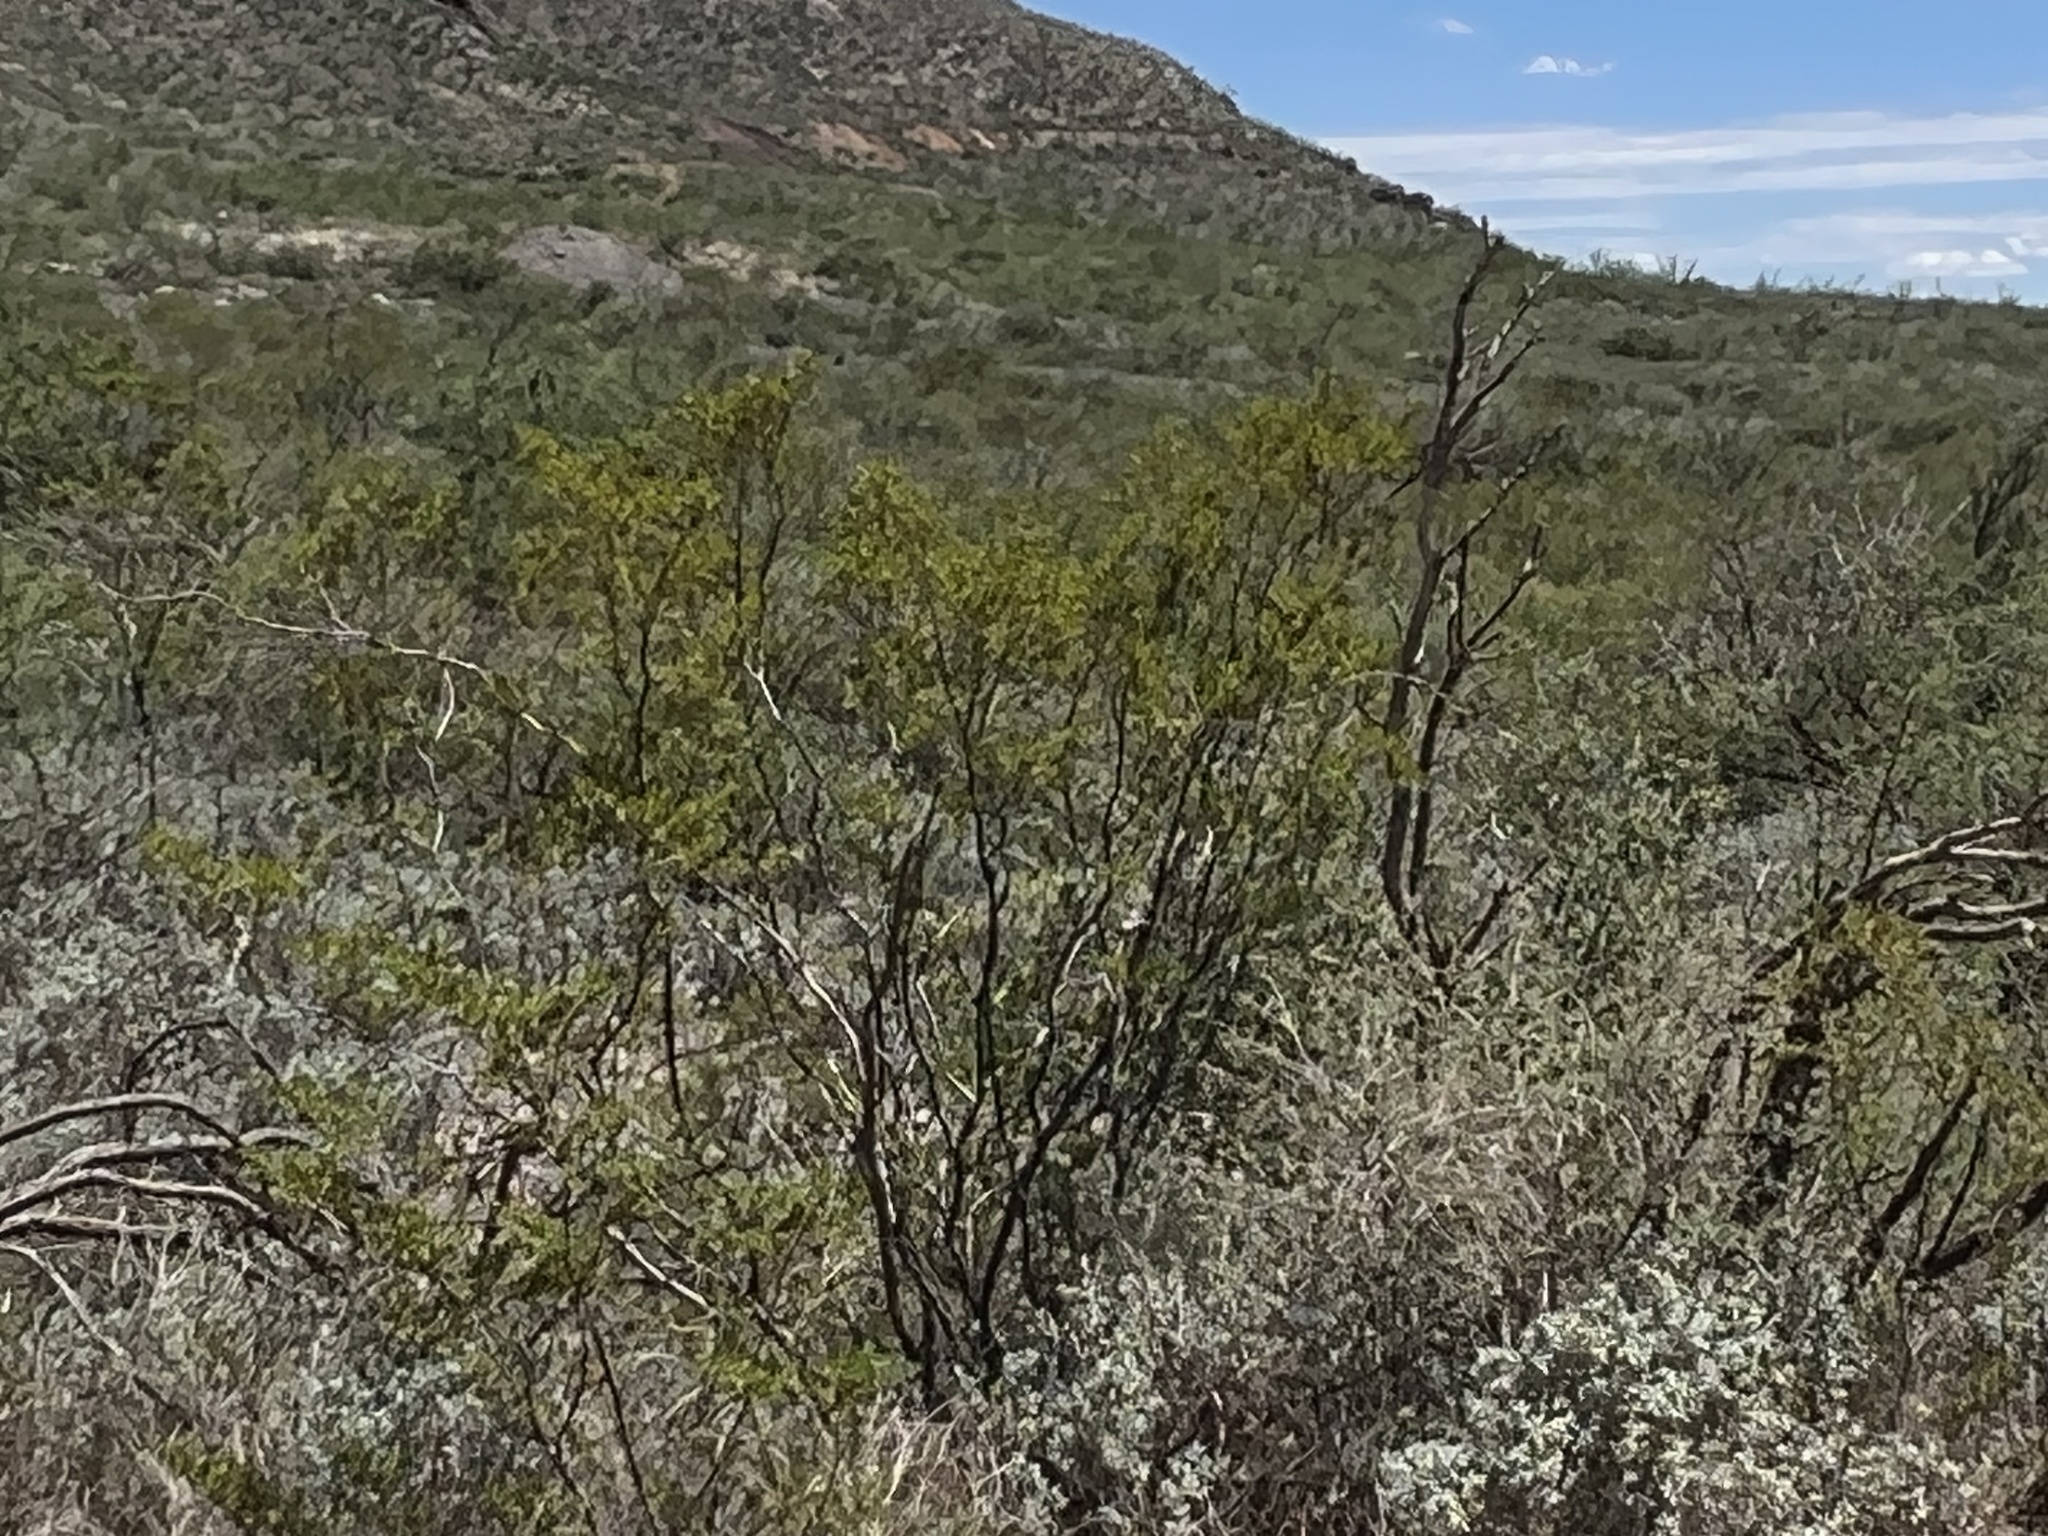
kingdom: Plantae
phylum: Tracheophyta
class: Magnoliopsida
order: Zygophyllales
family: Zygophyllaceae
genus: Larrea
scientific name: Larrea tridentata
